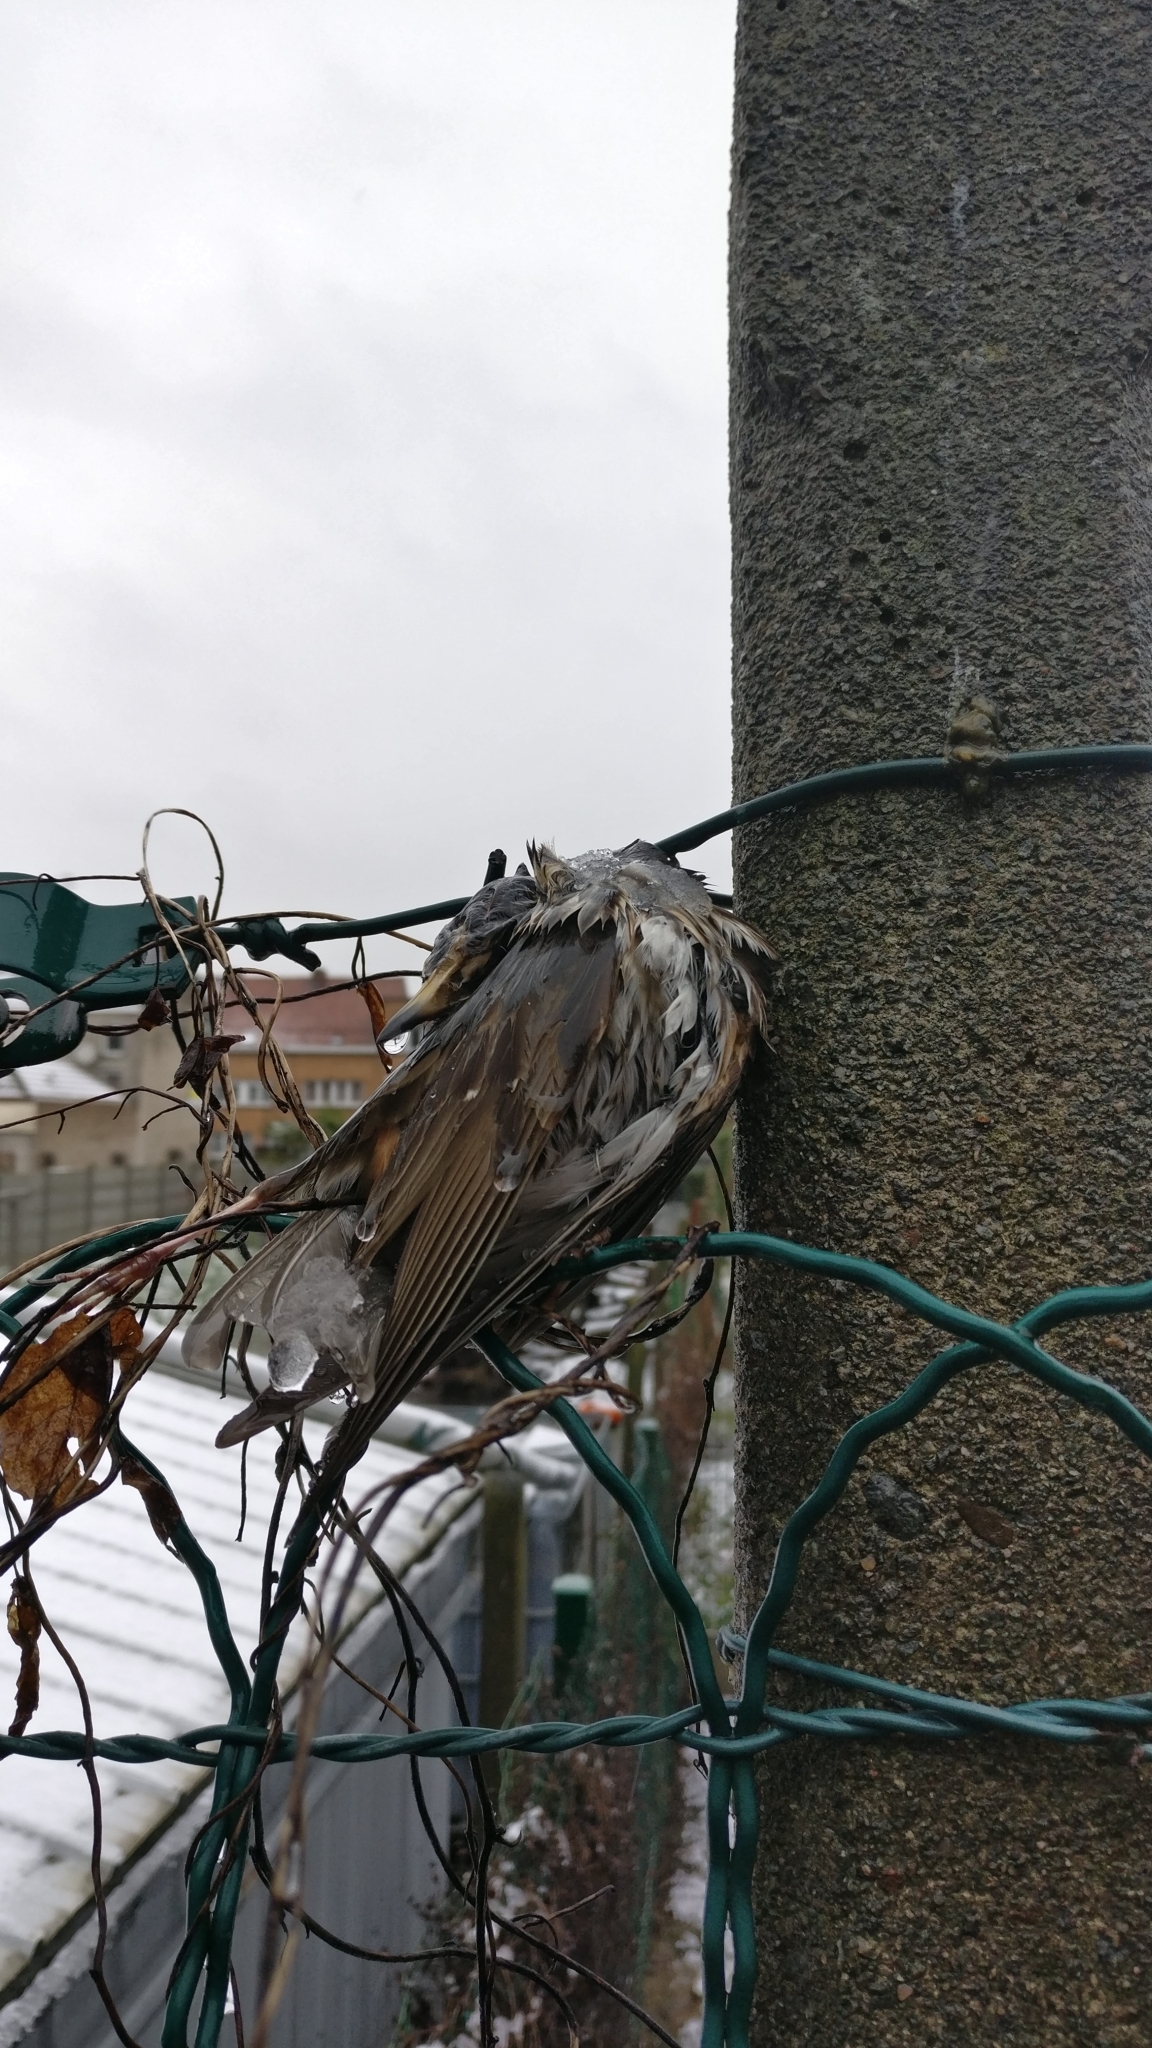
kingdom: Animalia
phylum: Chordata
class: Aves
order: Passeriformes
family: Turdidae
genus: Turdus
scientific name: Turdus iliacus
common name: Redwing
